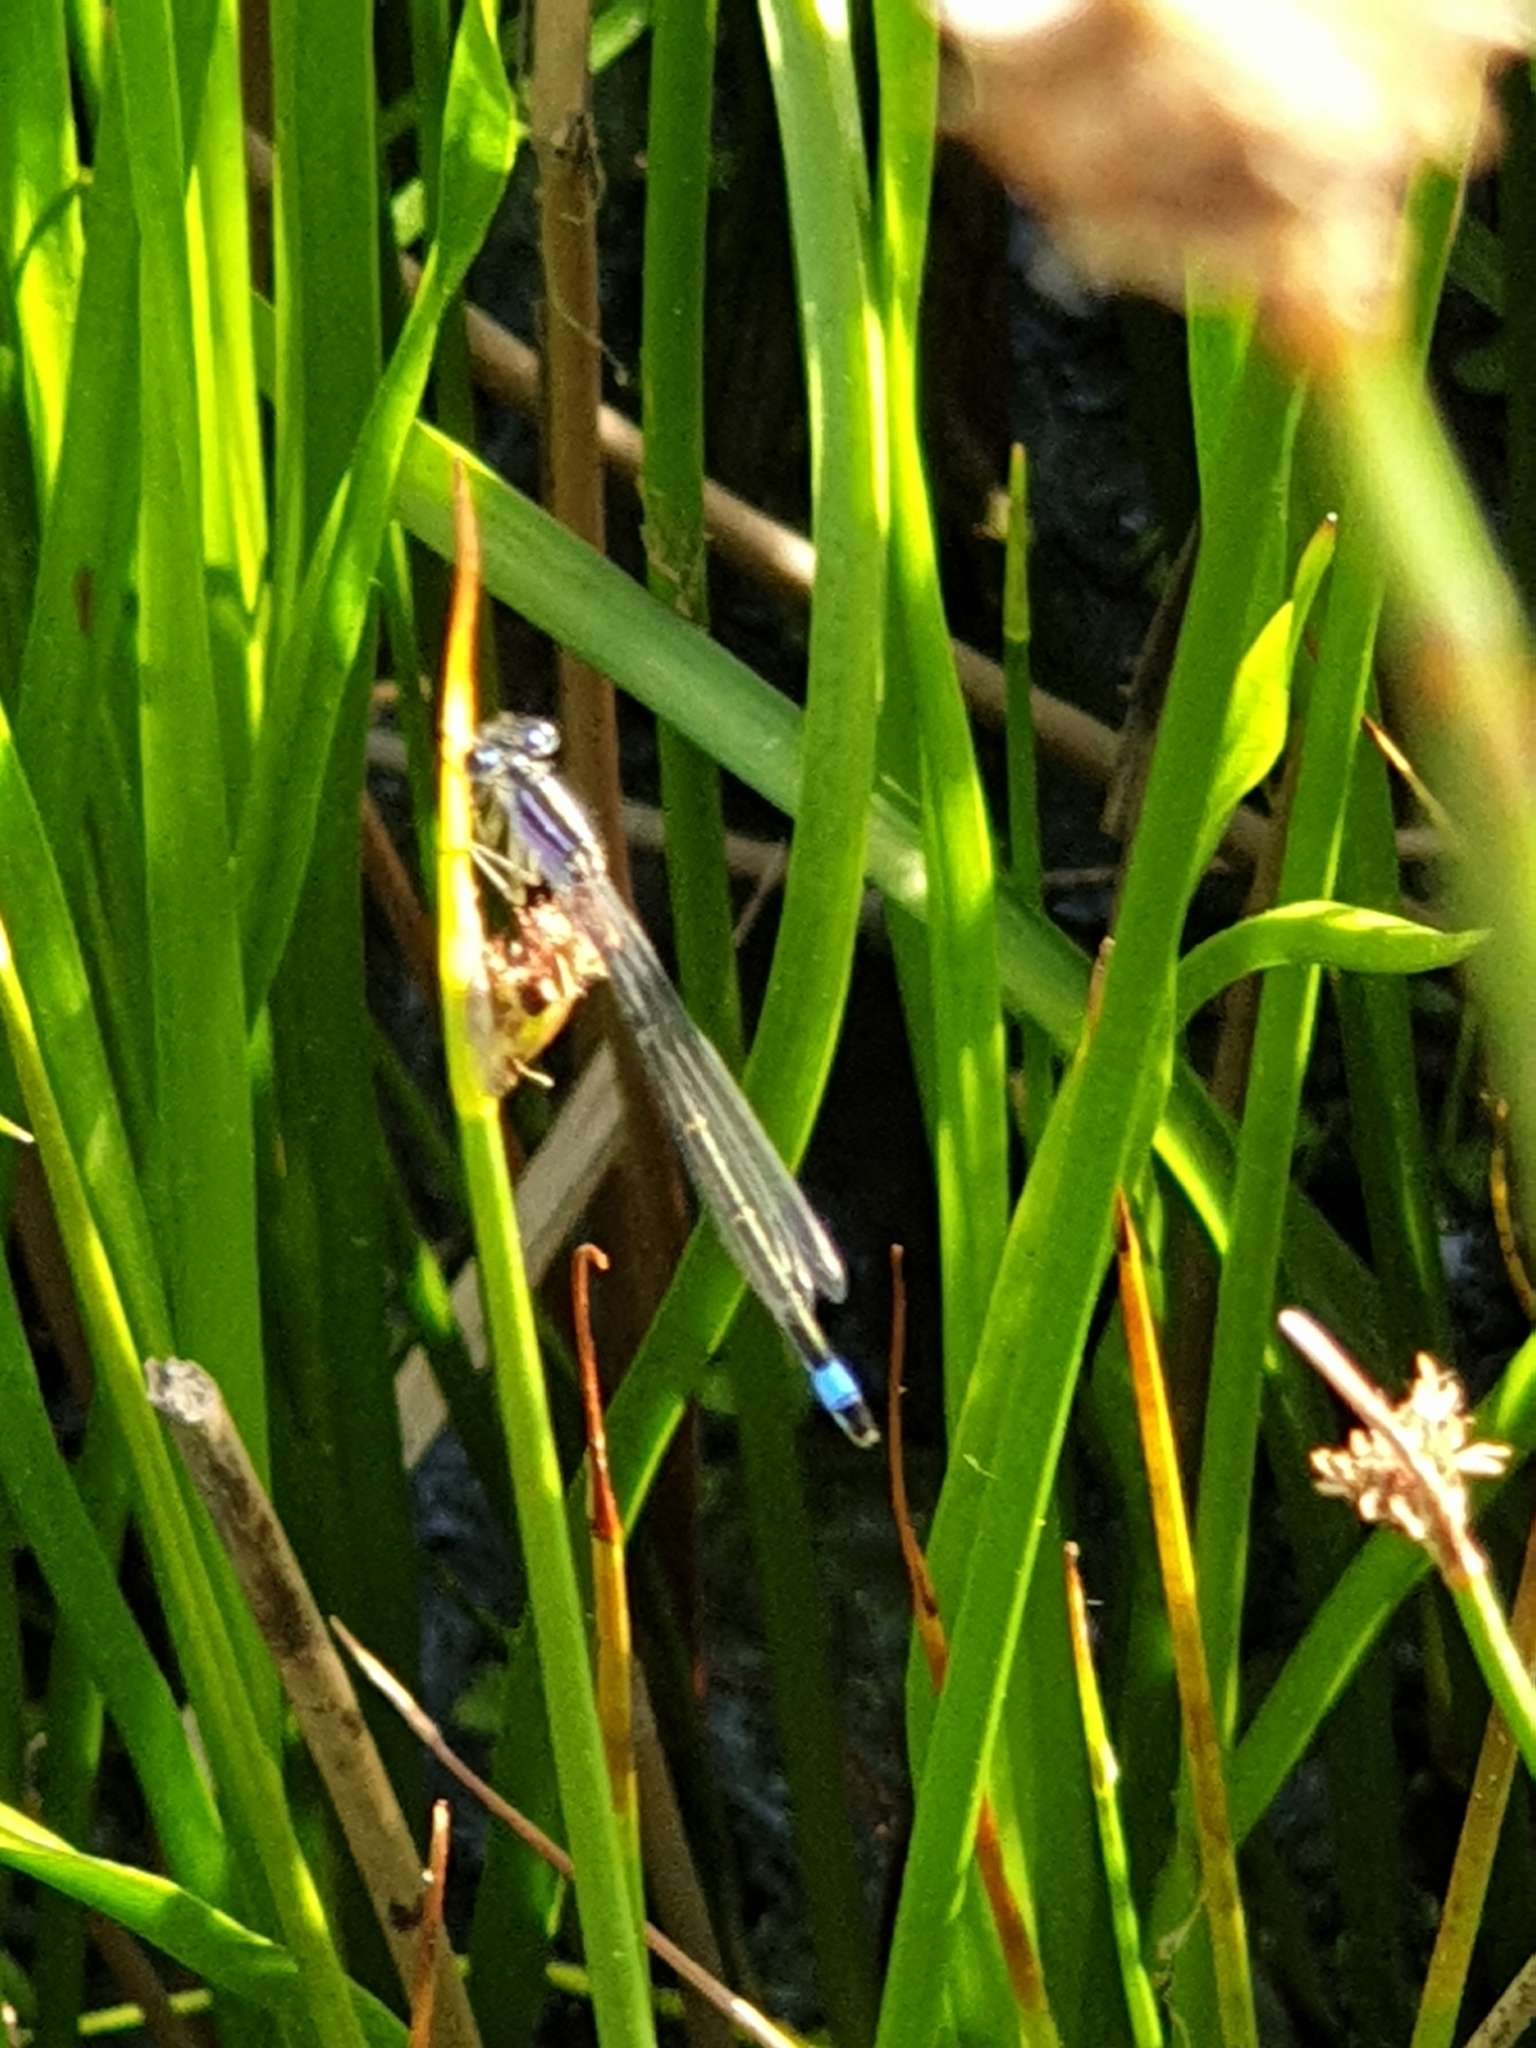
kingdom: Animalia
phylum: Arthropoda
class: Insecta
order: Odonata
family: Coenagrionidae
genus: Ischnura
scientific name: Ischnura elegans
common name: Blue-tailed damselfly
